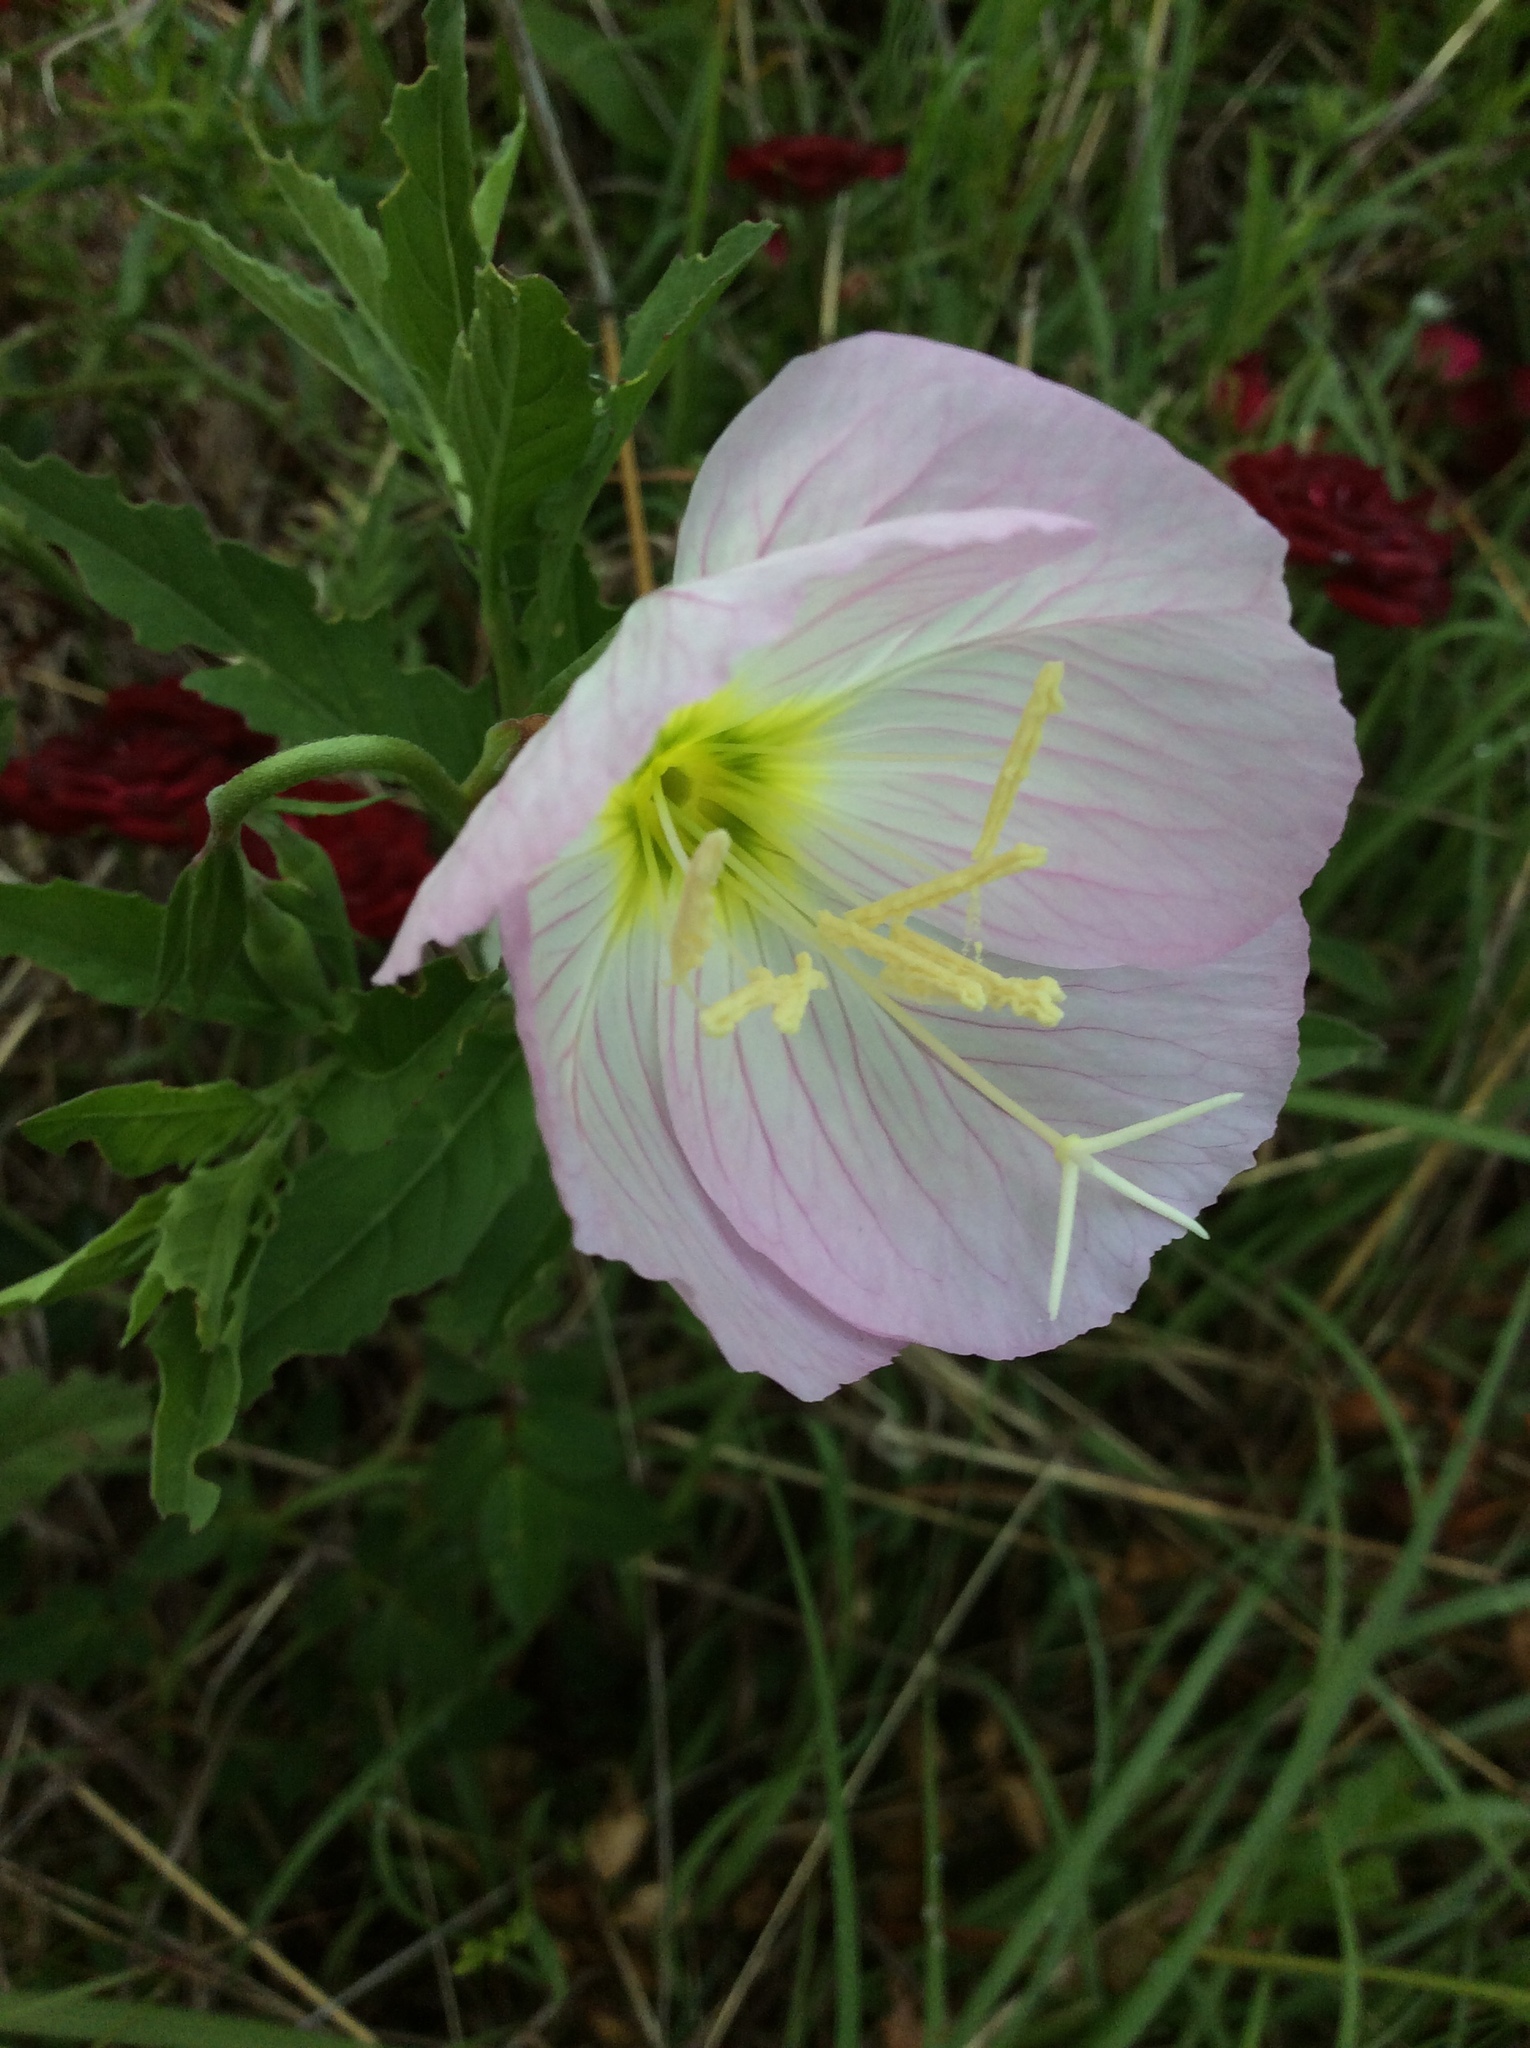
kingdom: Plantae
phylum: Tracheophyta
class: Magnoliopsida
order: Myrtales
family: Onagraceae
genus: Oenothera
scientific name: Oenothera speciosa
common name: White evening-primrose
